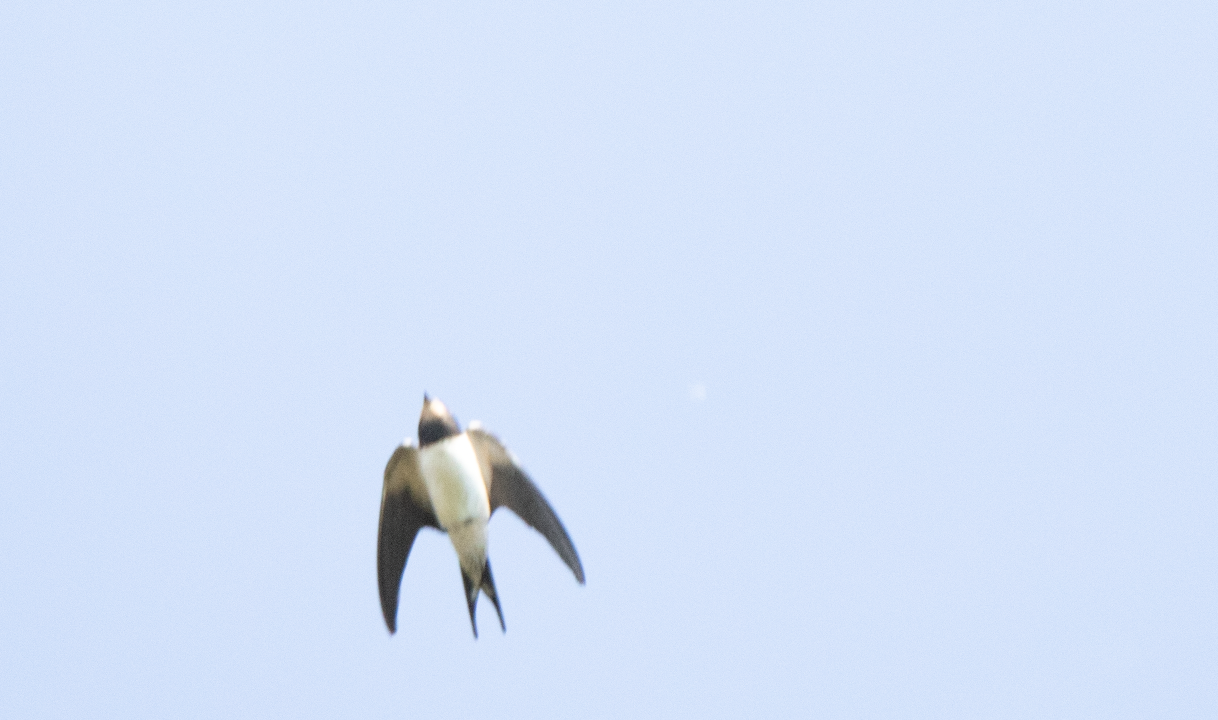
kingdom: Animalia
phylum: Chordata
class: Aves
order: Passeriformes
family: Hirundinidae
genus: Hirundo
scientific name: Hirundo rustica
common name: Barn swallow
